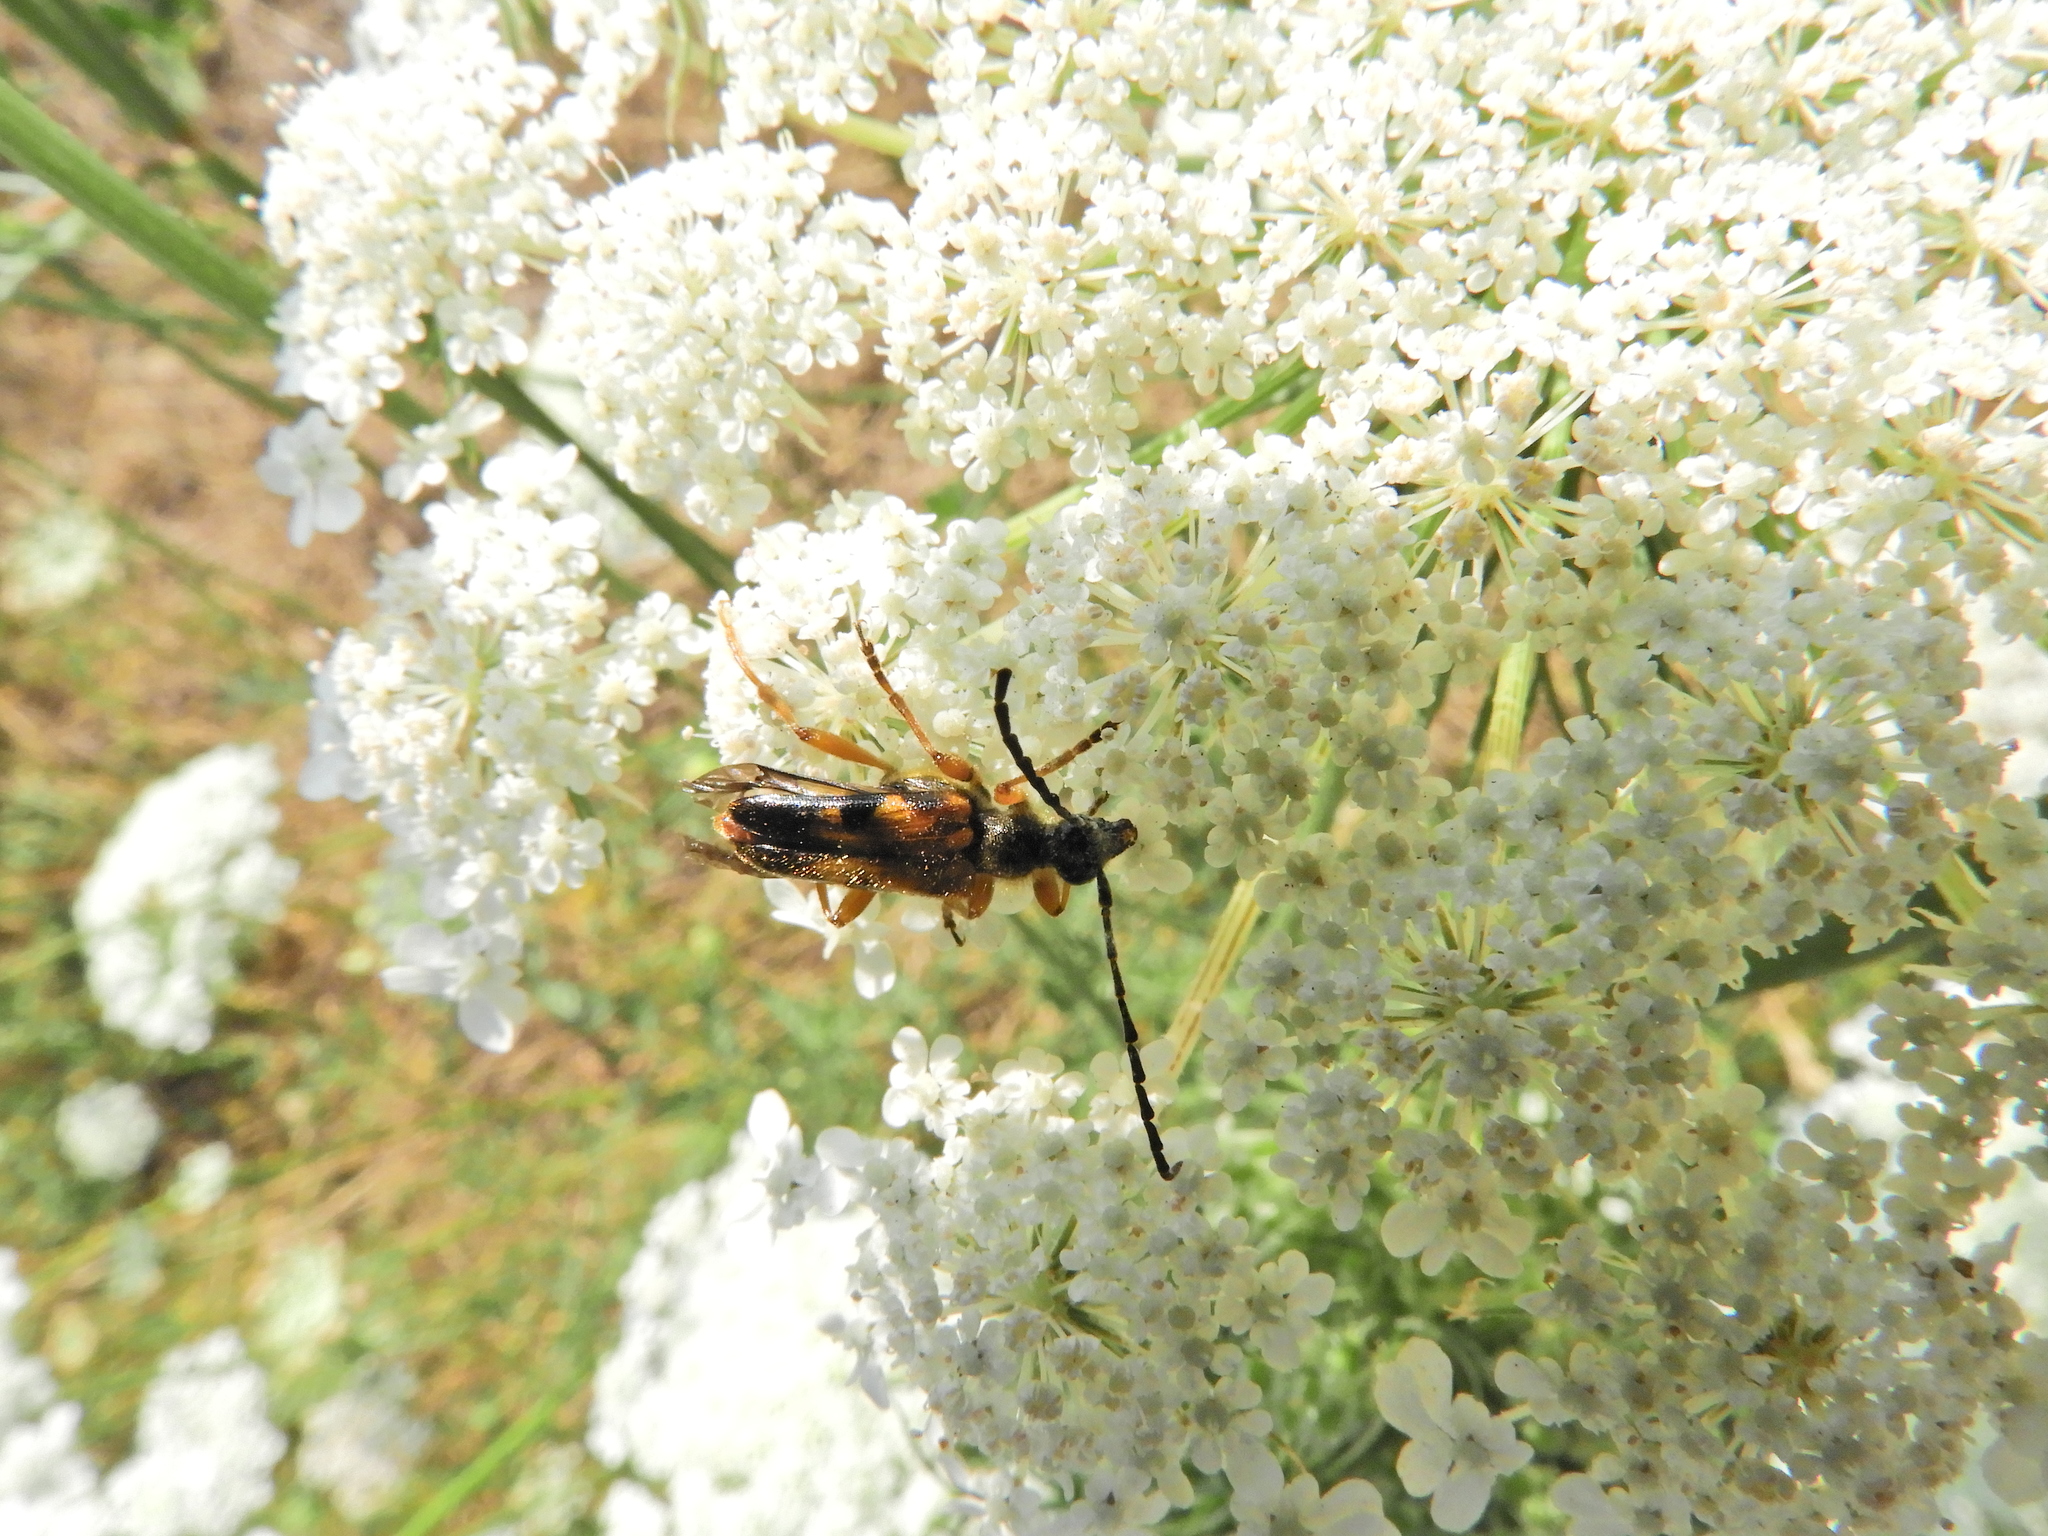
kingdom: Animalia
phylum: Arthropoda
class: Insecta
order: Coleoptera
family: Cerambycidae
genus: Xestoleptura
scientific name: Xestoleptura crassipes
